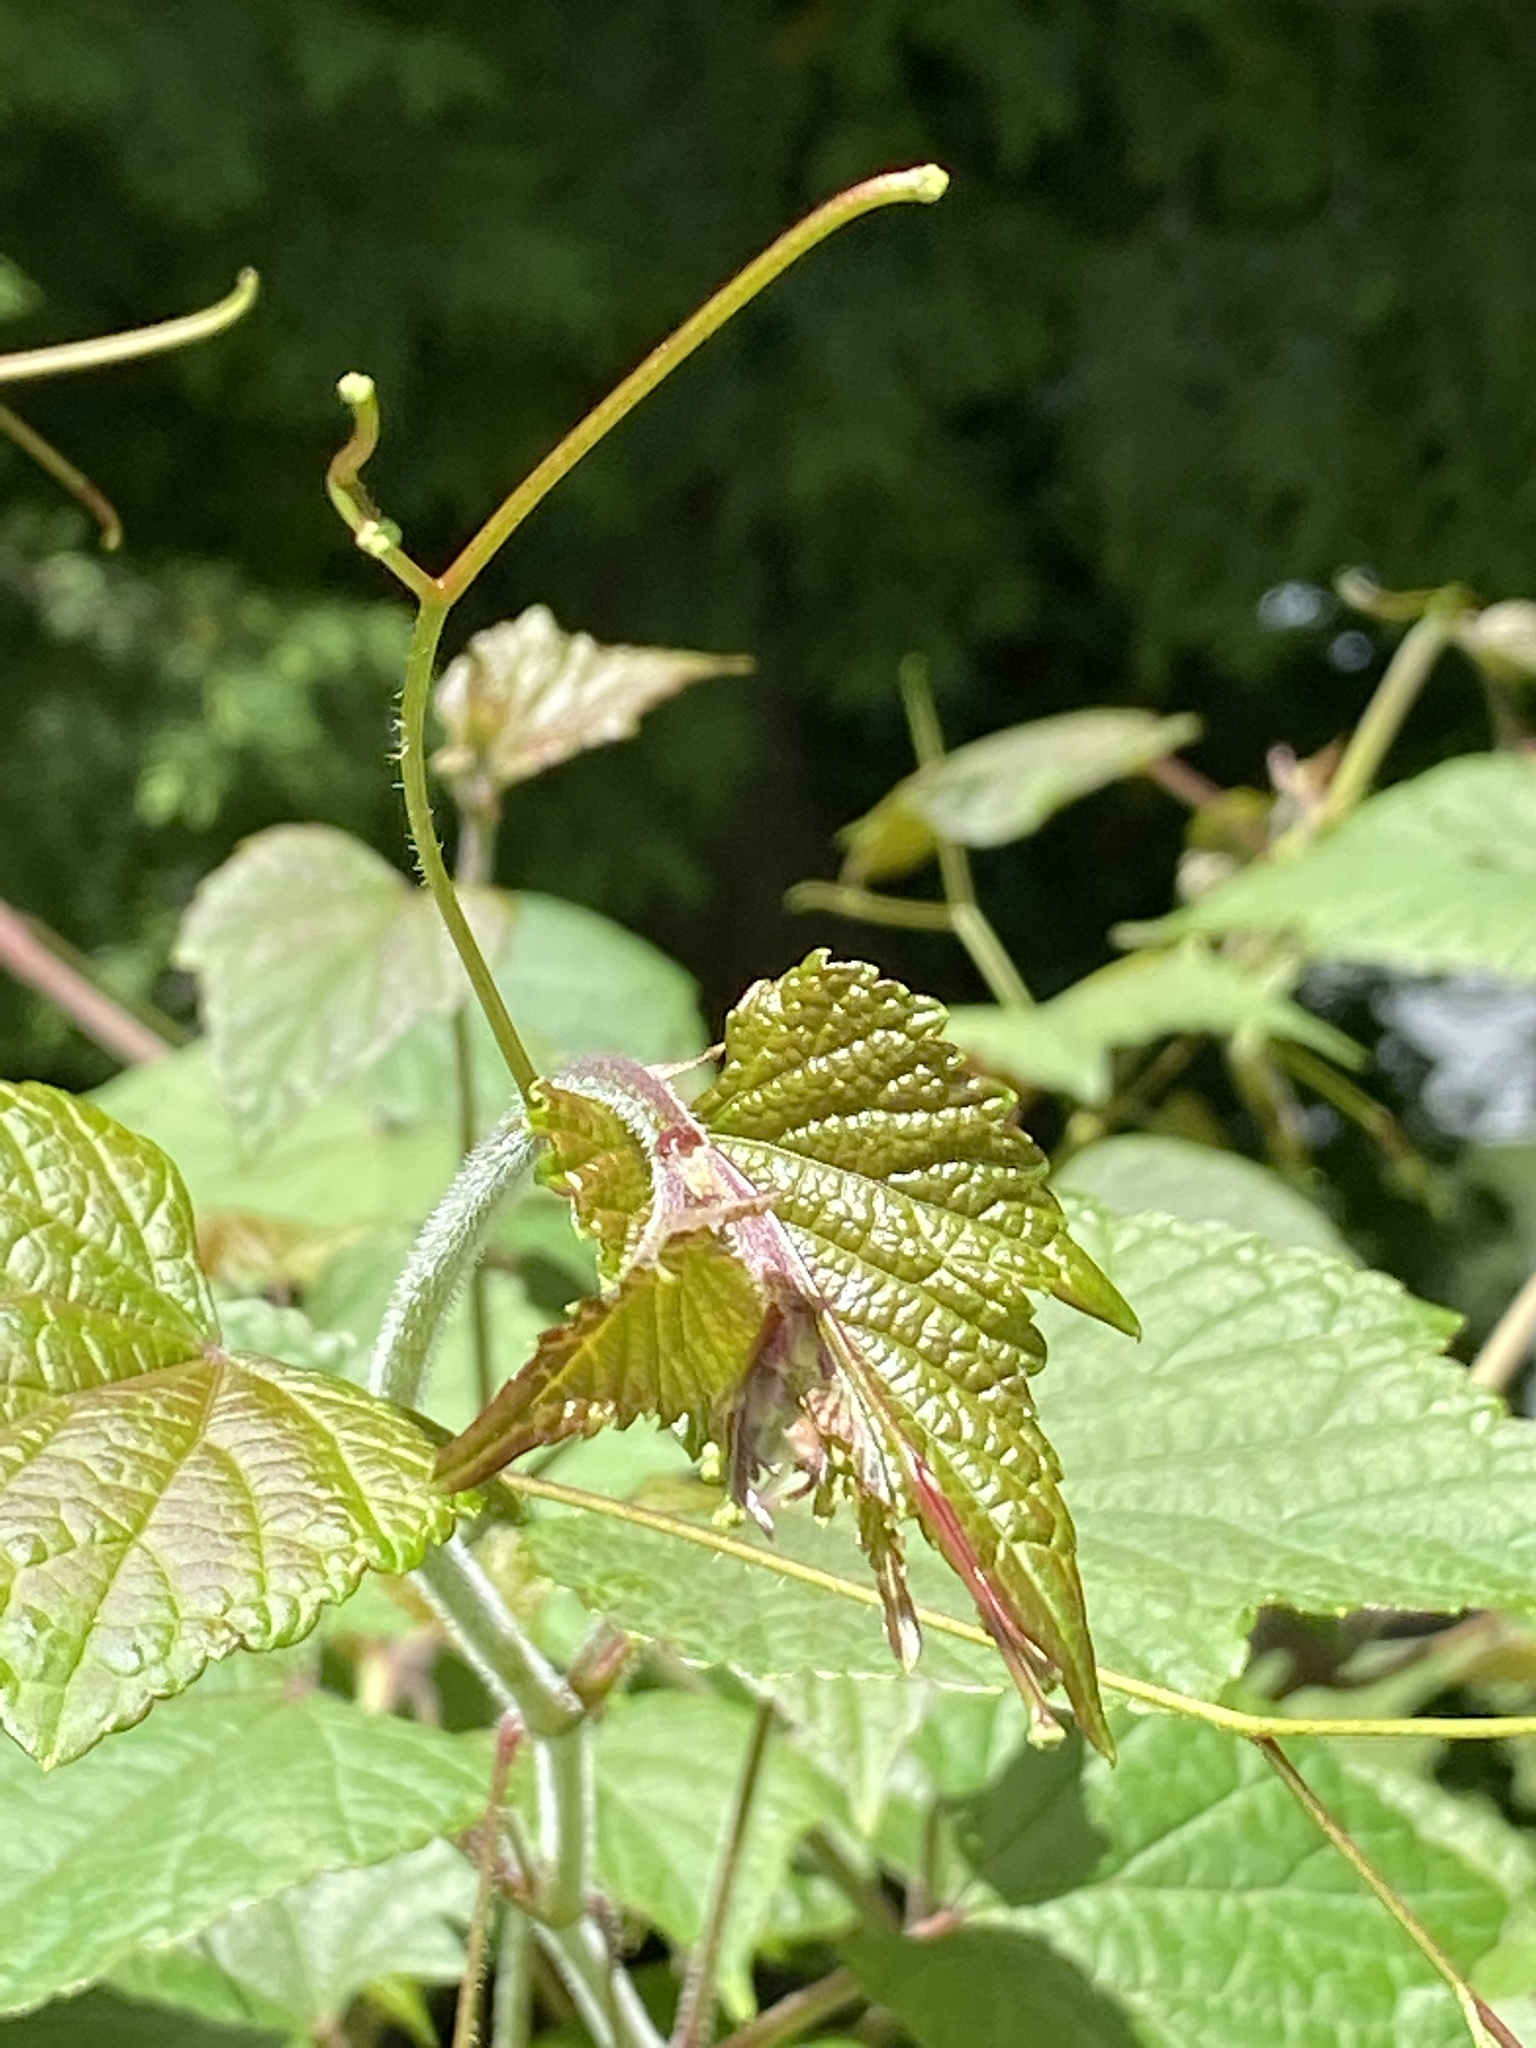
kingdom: Plantae
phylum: Tracheophyta
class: Magnoliopsida
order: Vitales
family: Vitaceae
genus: Ampelopsis
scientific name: Ampelopsis glandulosa
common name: Amur peppervine
